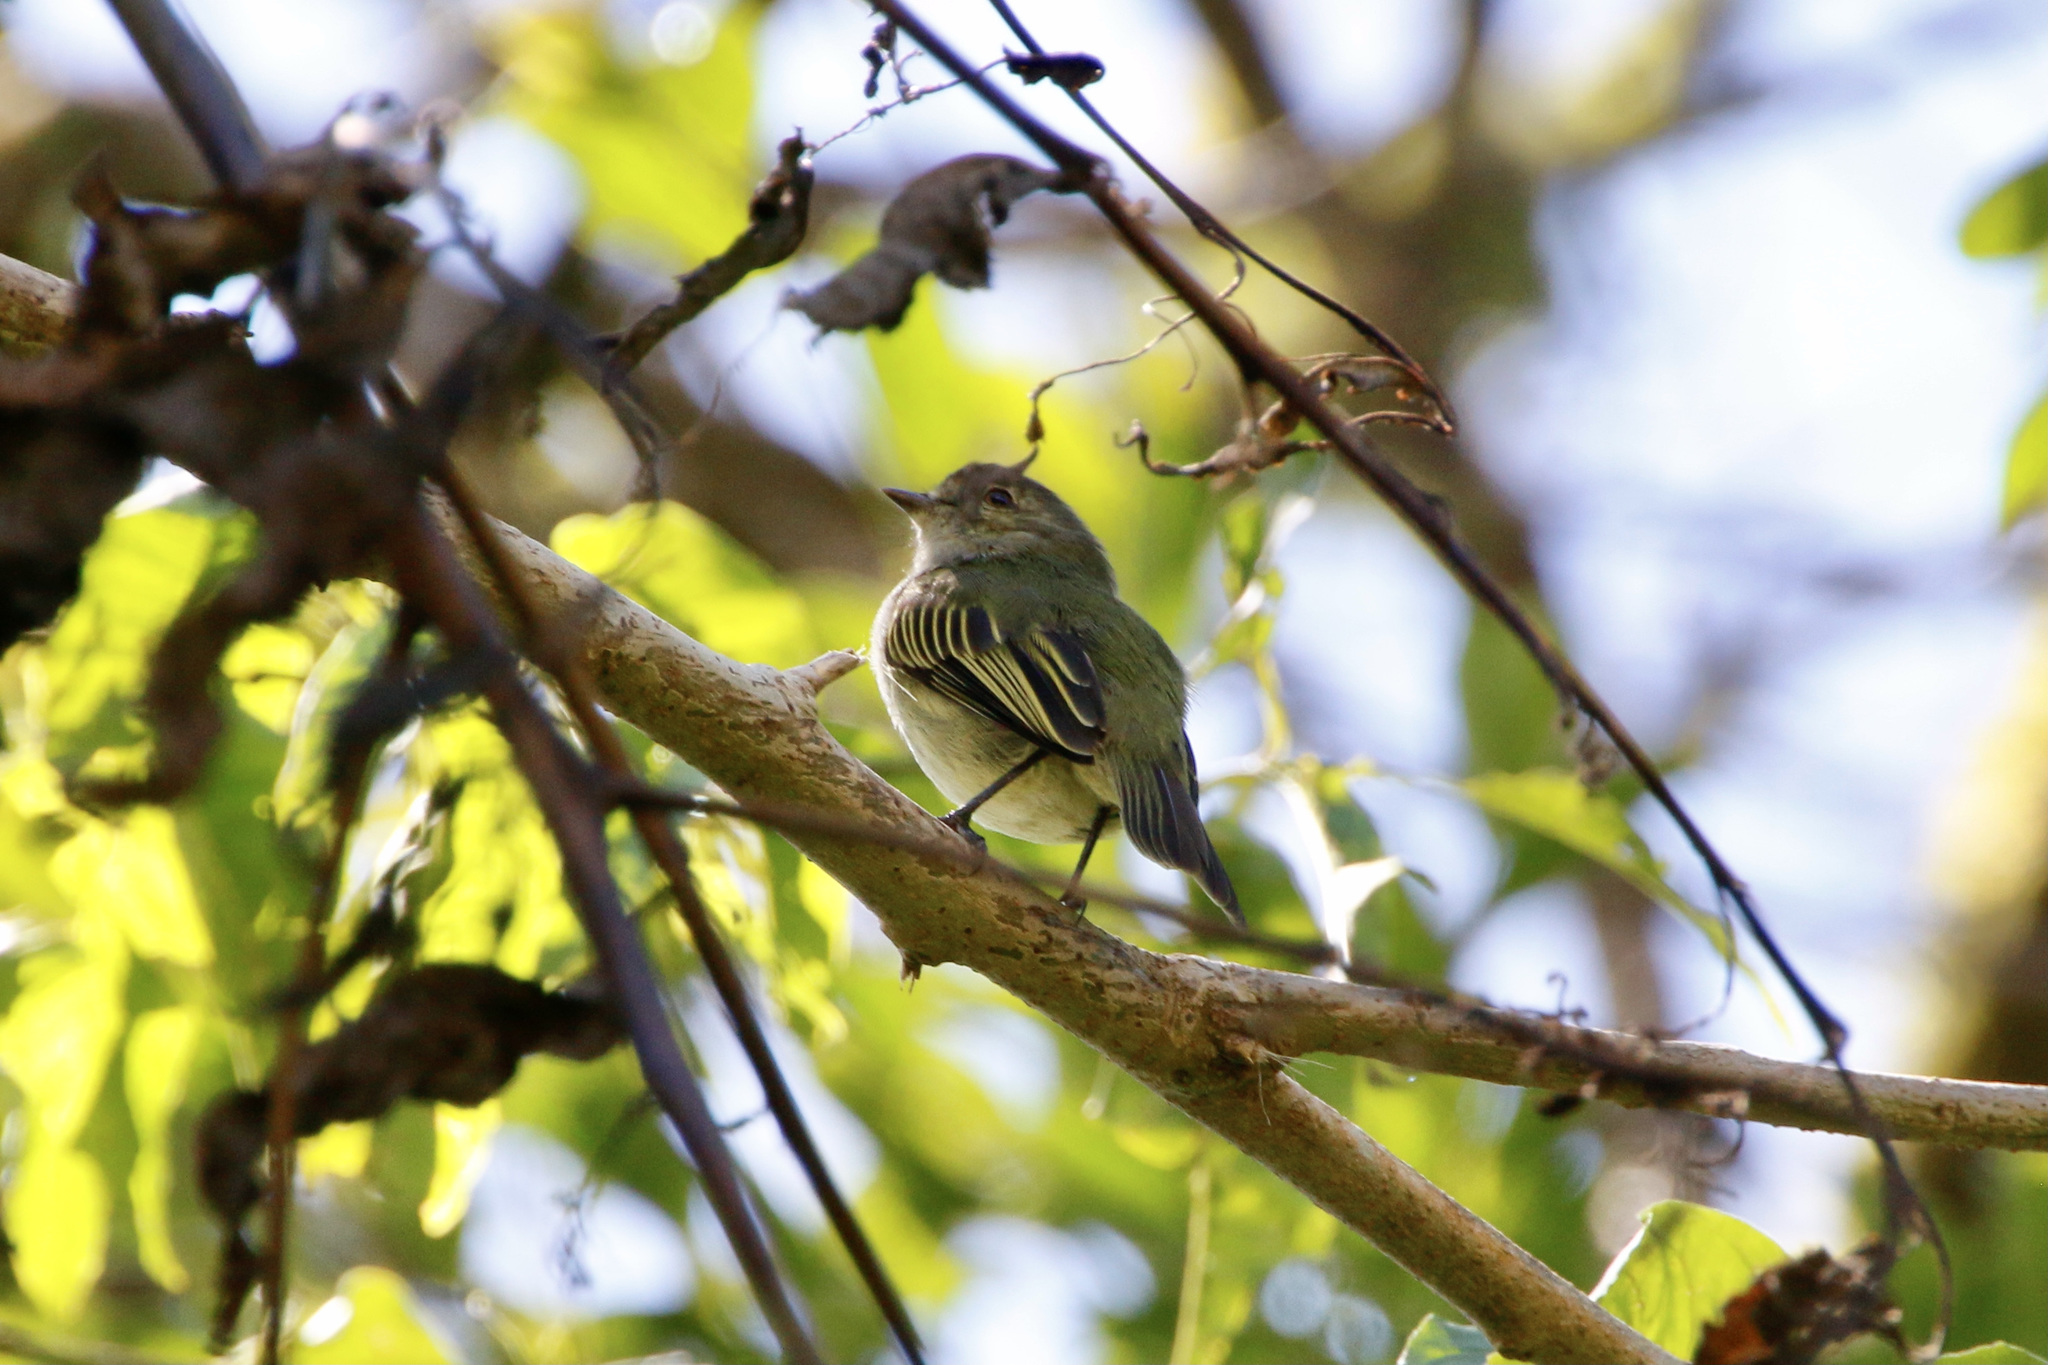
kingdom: Animalia
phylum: Chordata
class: Aves
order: Passeriformes
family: Tyrannidae
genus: Zimmerius
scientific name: Zimmerius vilissimus
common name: Paltry tyrannulet
